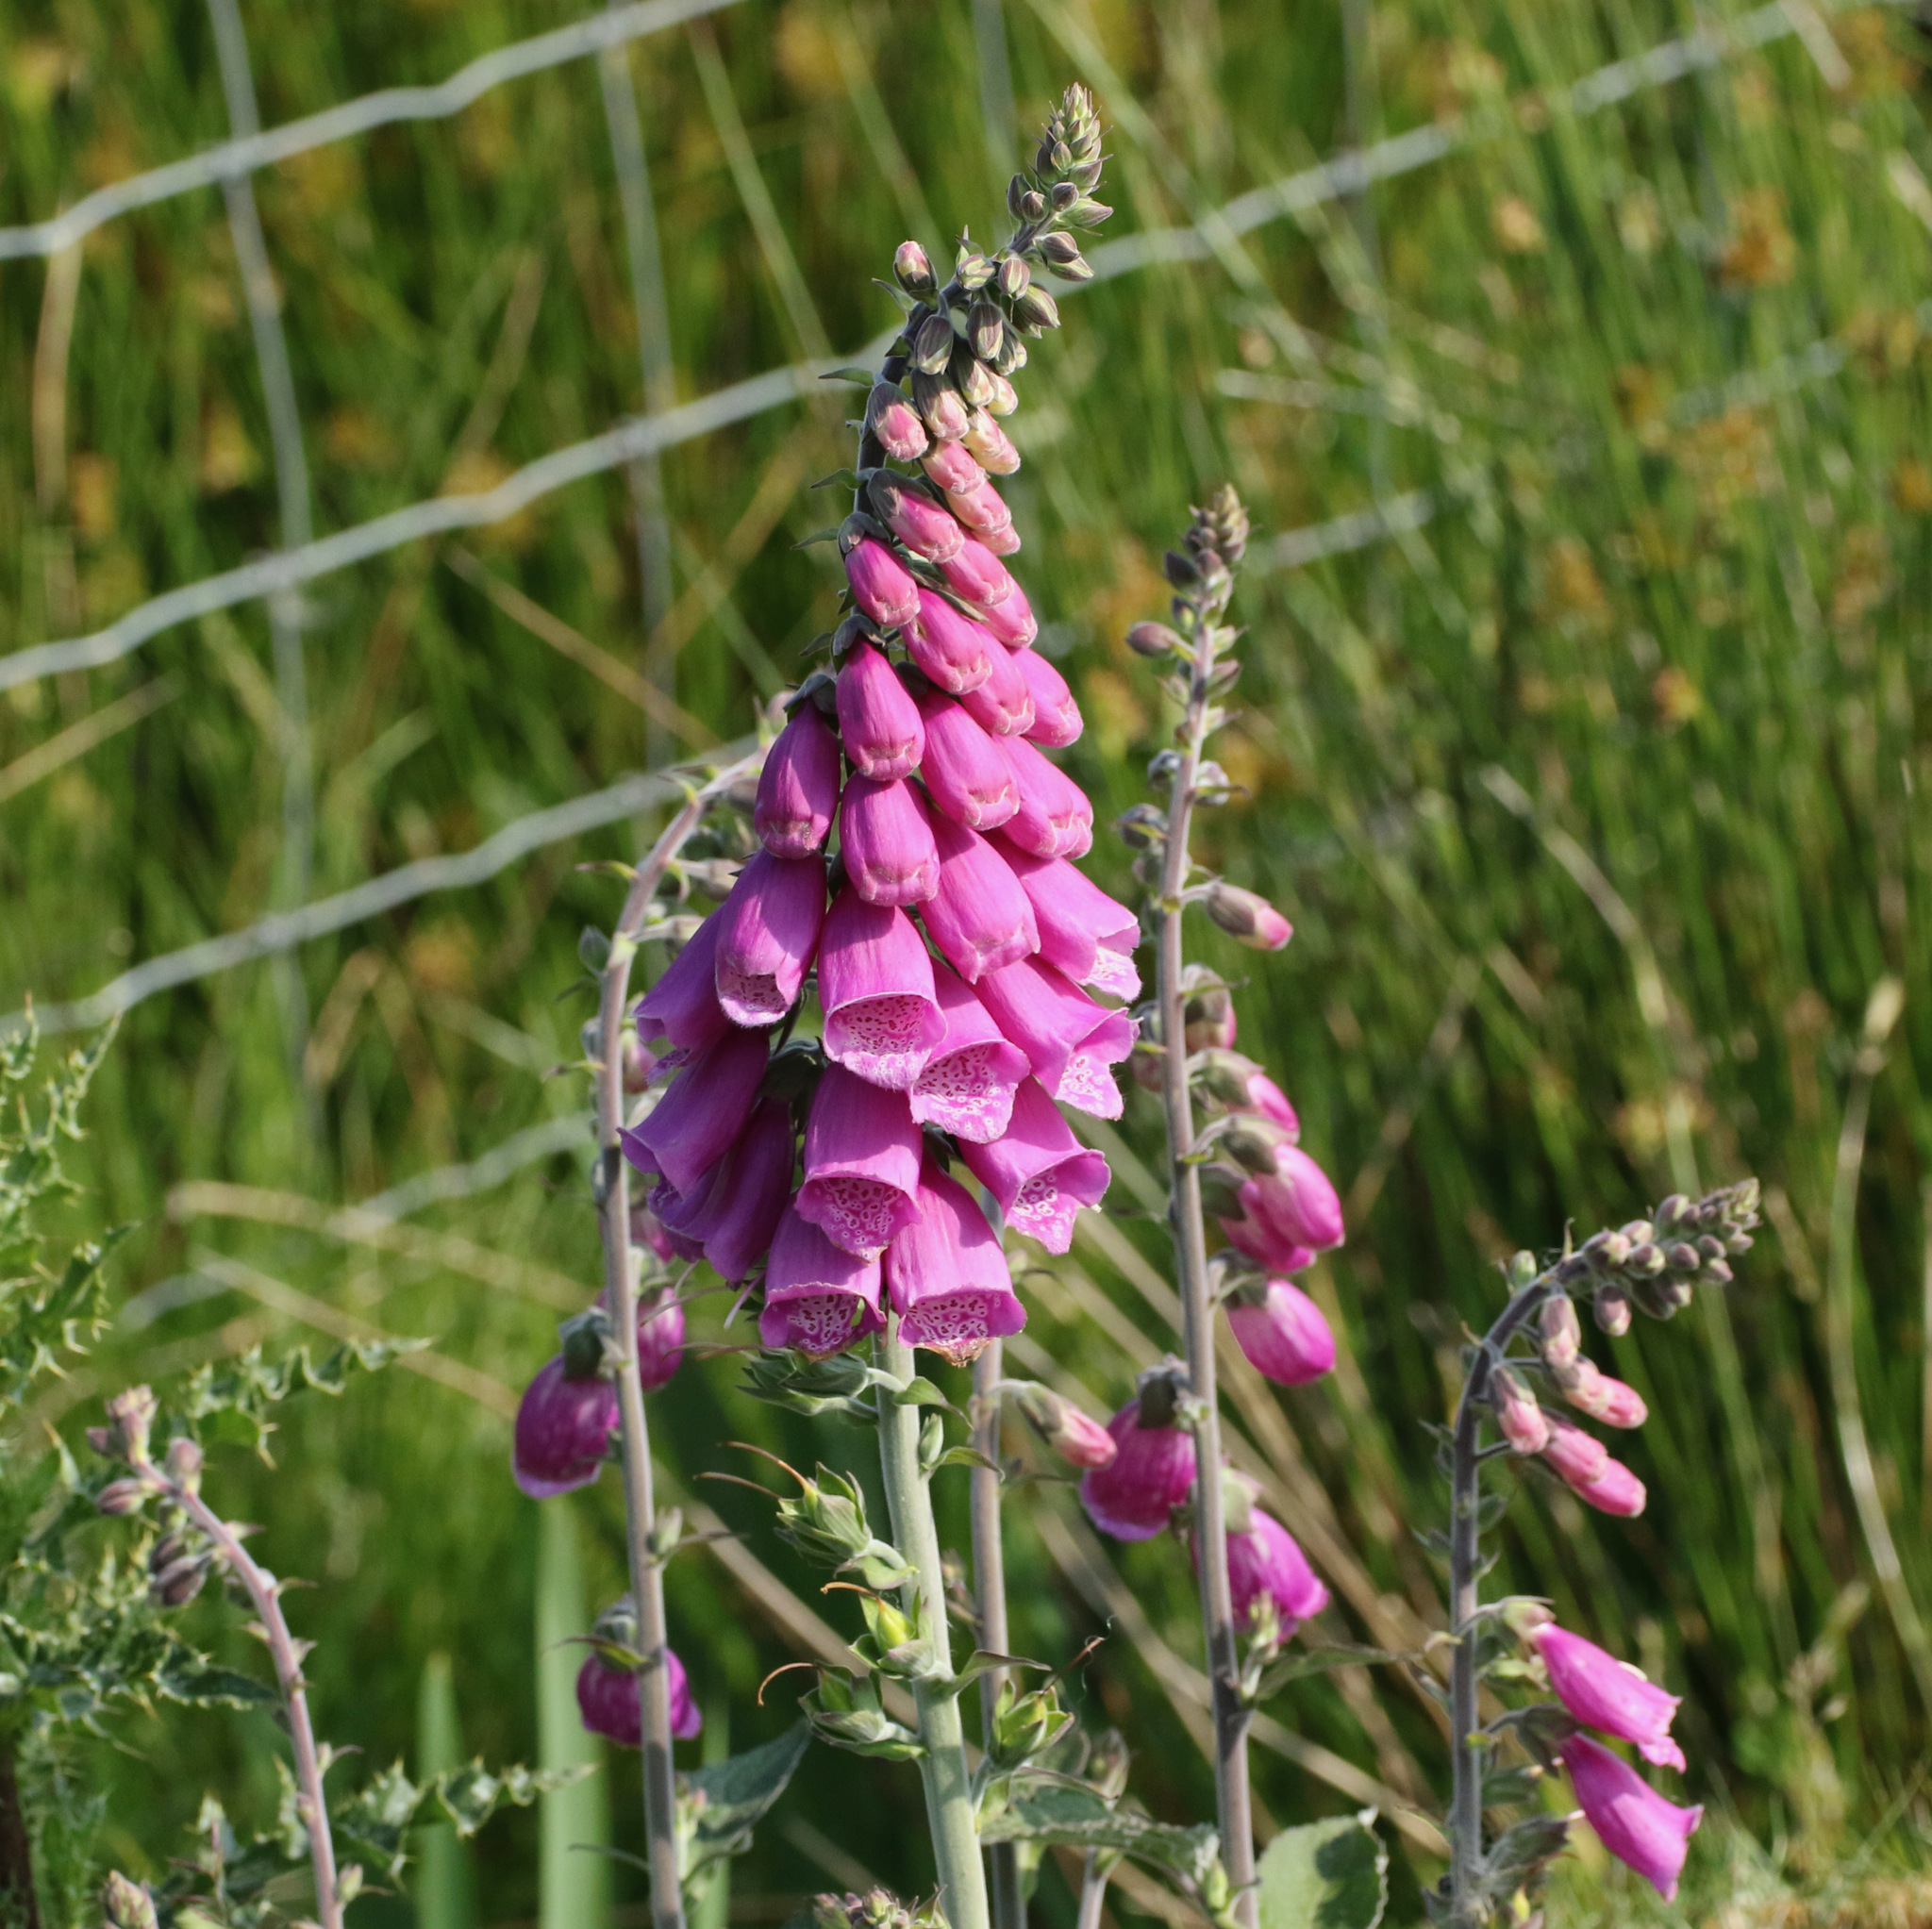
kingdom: Plantae
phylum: Tracheophyta
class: Magnoliopsida
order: Lamiales
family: Plantaginaceae
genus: Digitalis
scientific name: Digitalis purpurea
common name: Foxglove
